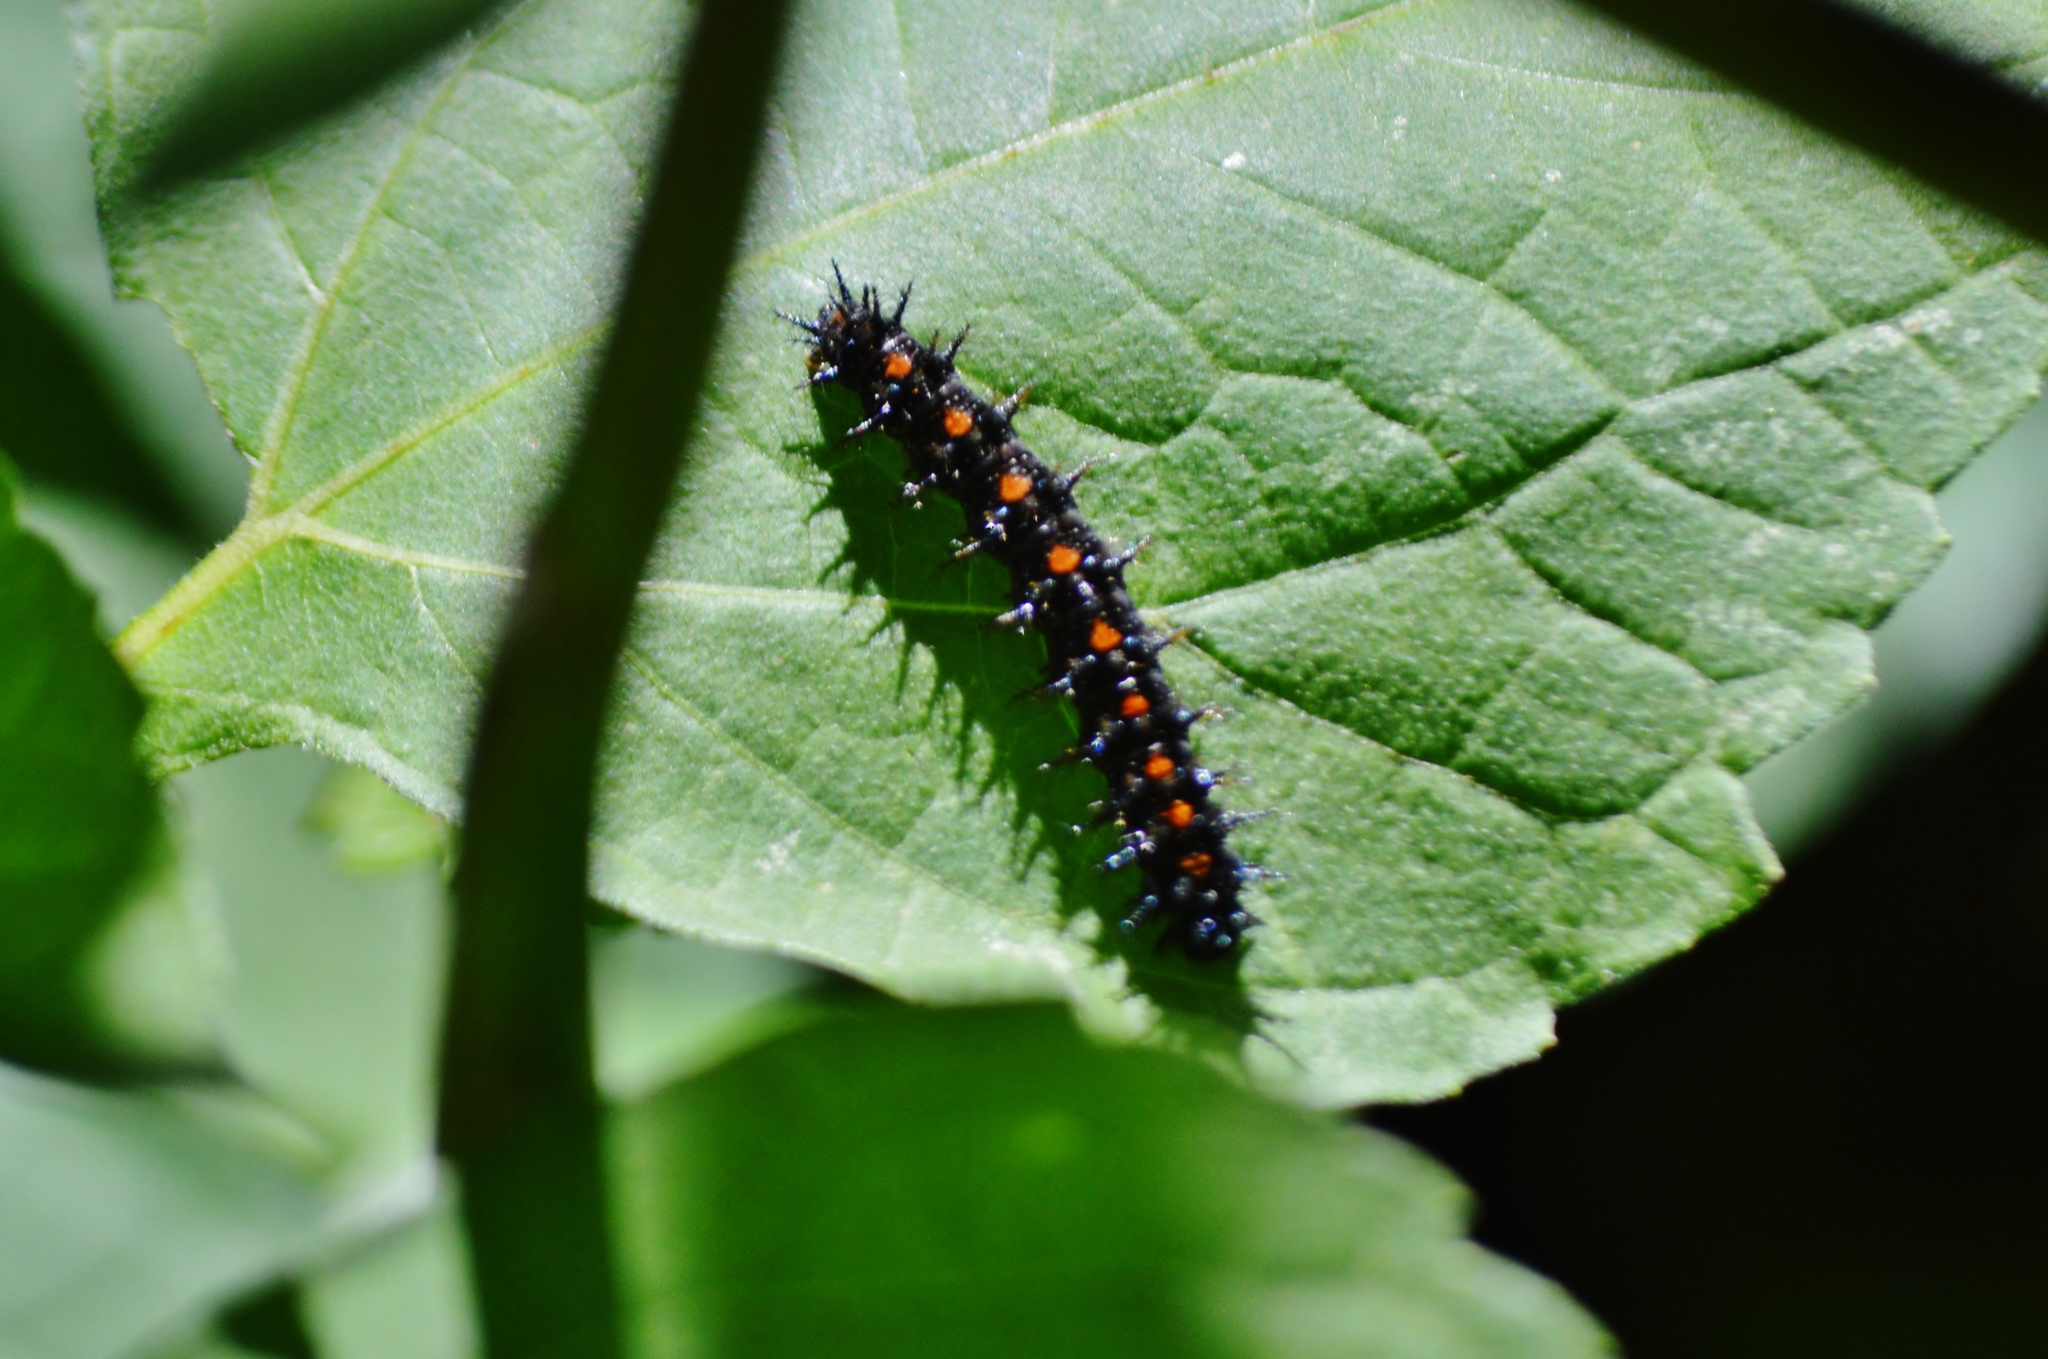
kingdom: Animalia
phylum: Arthropoda
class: Insecta
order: Lepidoptera
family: Nymphalidae
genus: Chlosyne
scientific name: Chlosyne lacinia
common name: Bordered patch
